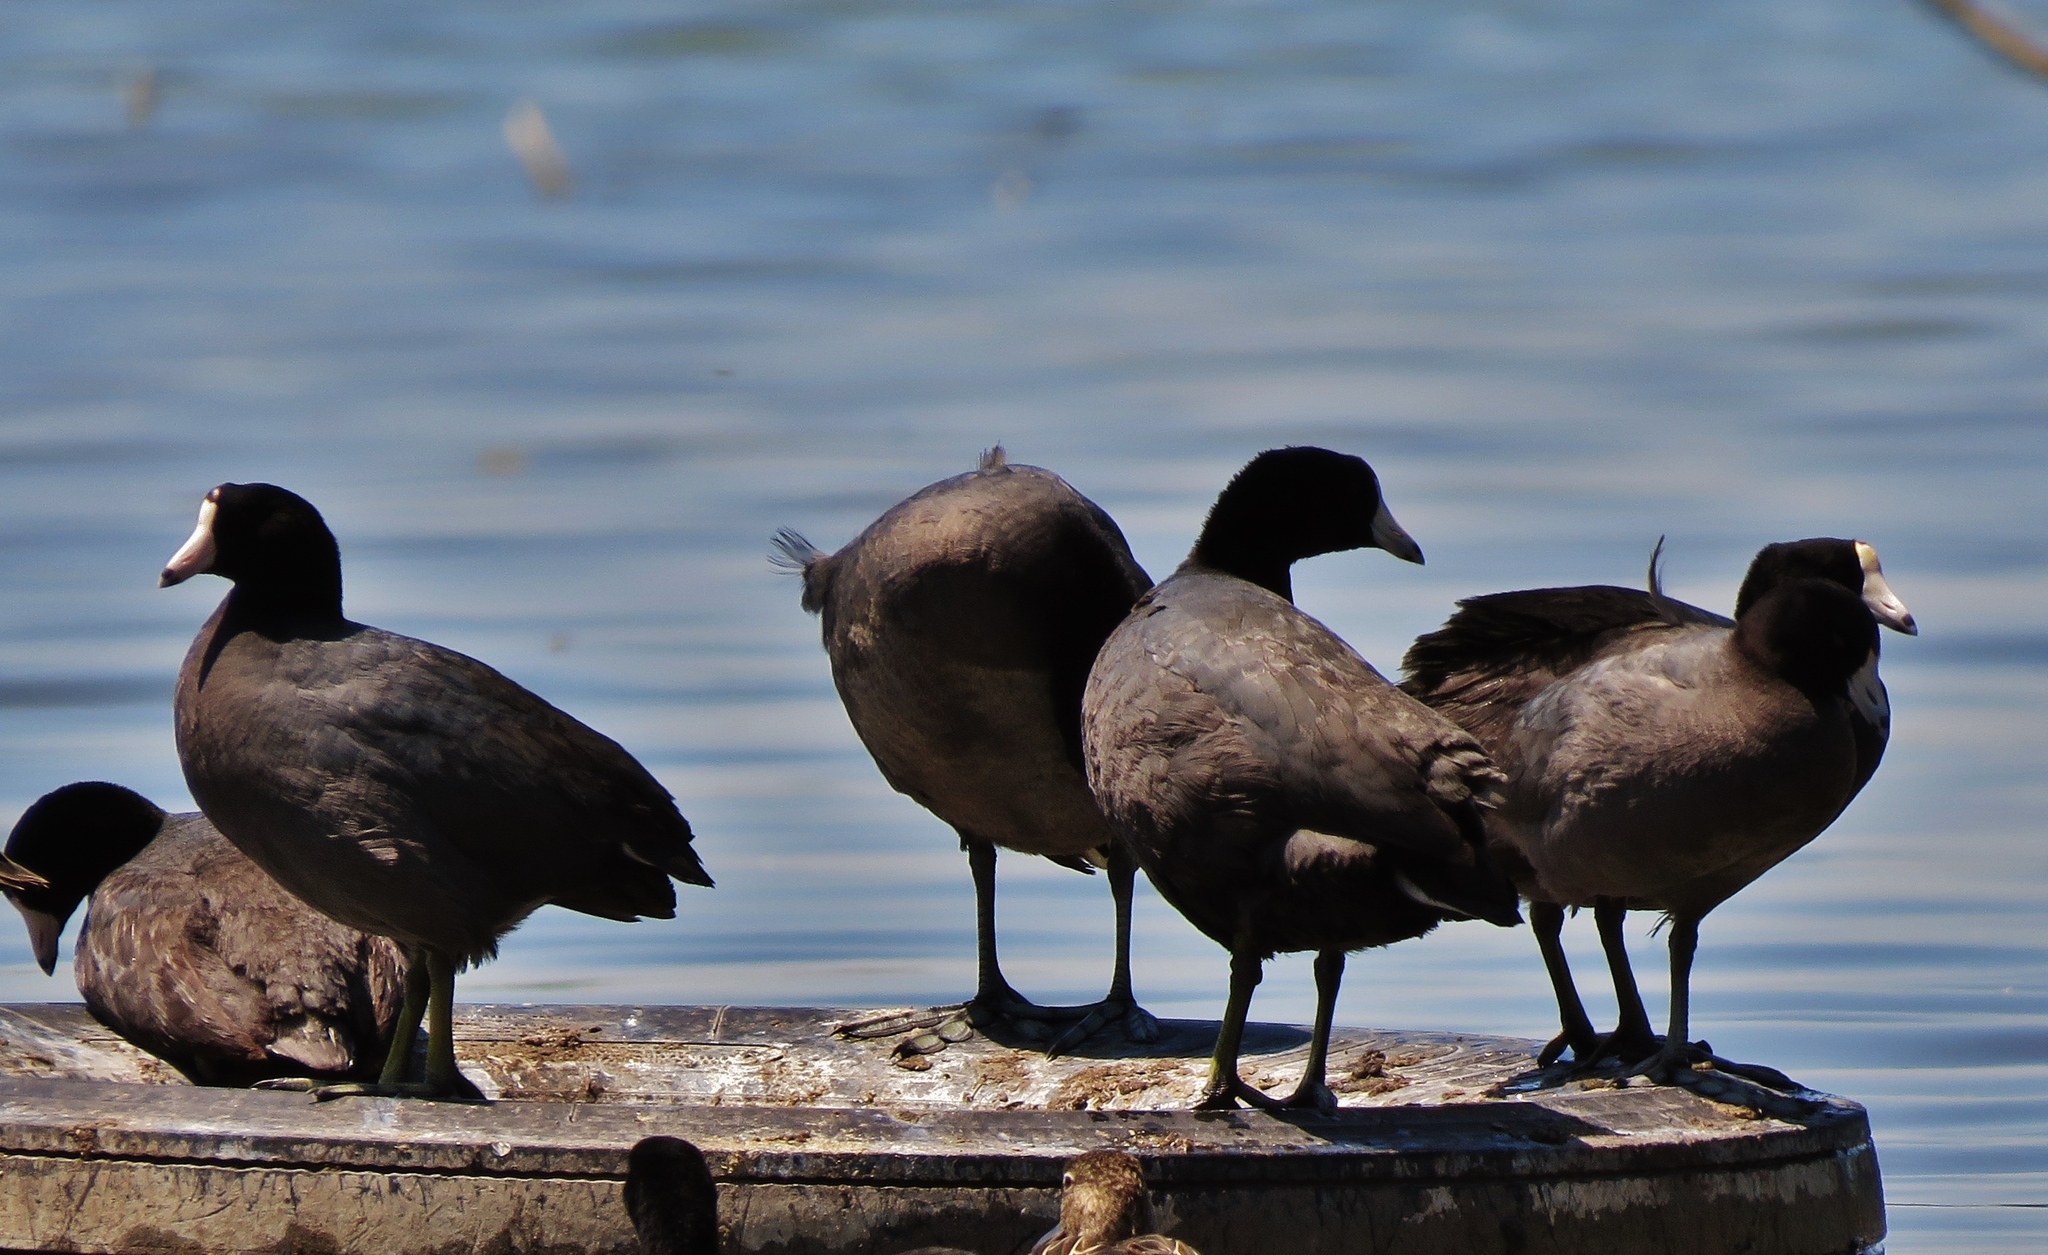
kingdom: Animalia
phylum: Chordata
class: Aves
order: Gruiformes
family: Rallidae
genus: Fulica
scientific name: Fulica americana
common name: American coot
